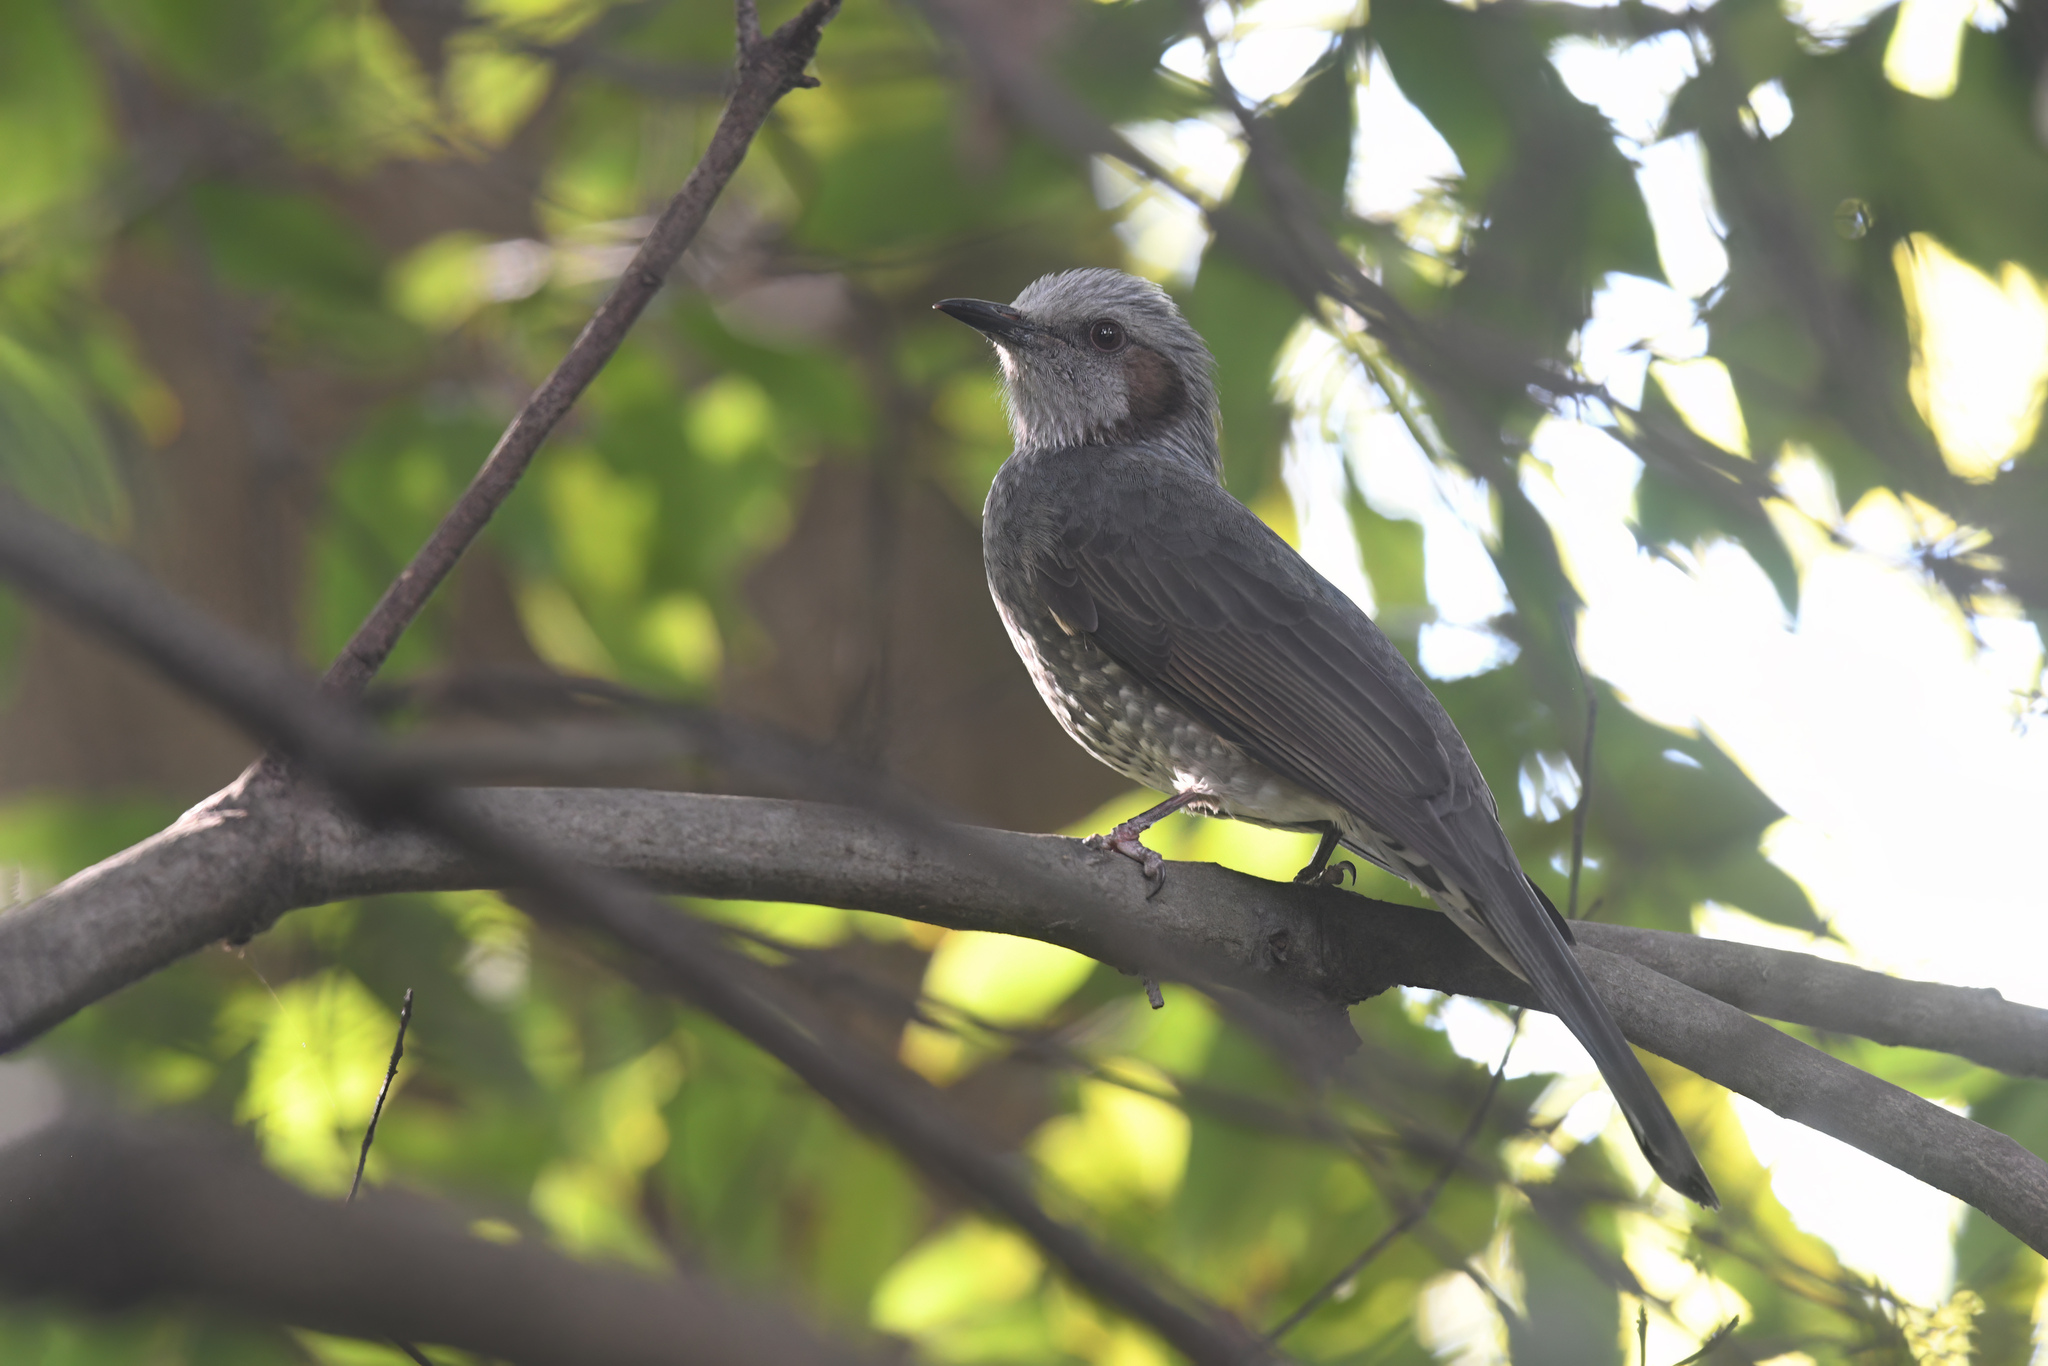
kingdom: Animalia
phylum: Chordata
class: Aves
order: Passeriformes
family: Pycnonotidae
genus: Hypsipetes
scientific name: Hypsipetes amaurotis
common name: Brown-eared bulbul
